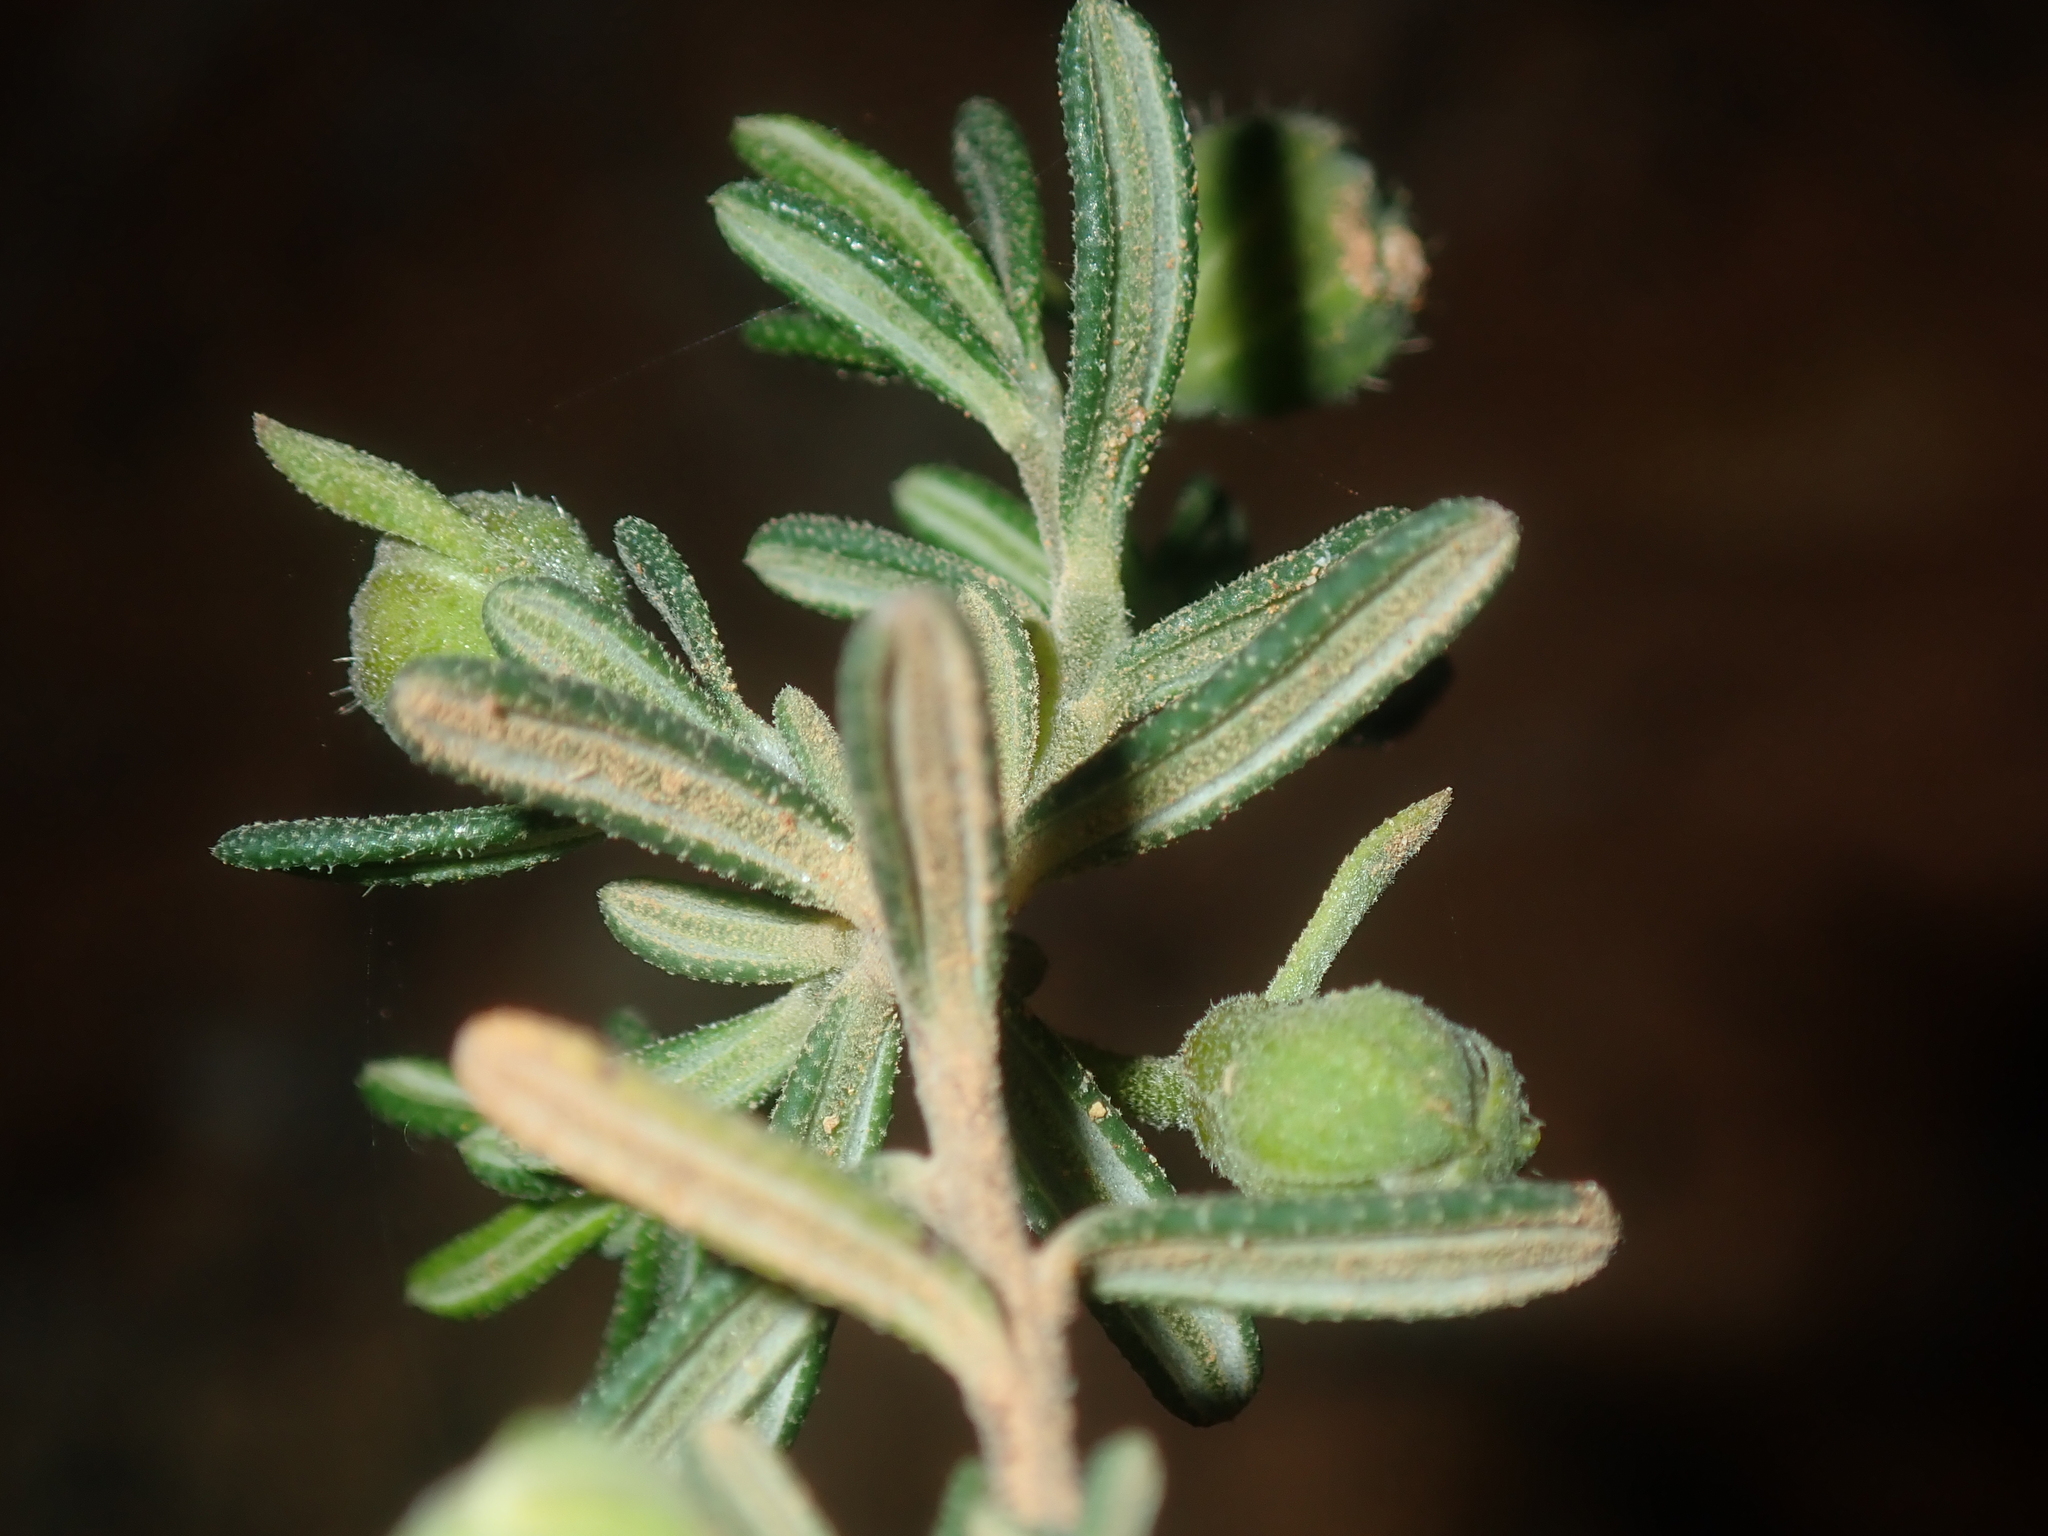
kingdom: Plantae
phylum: Tracheophyta
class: Magnoliopsida
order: Dilleniales
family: Dilleniaceae
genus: Hibbertia
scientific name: Hibbertia hypericoides
